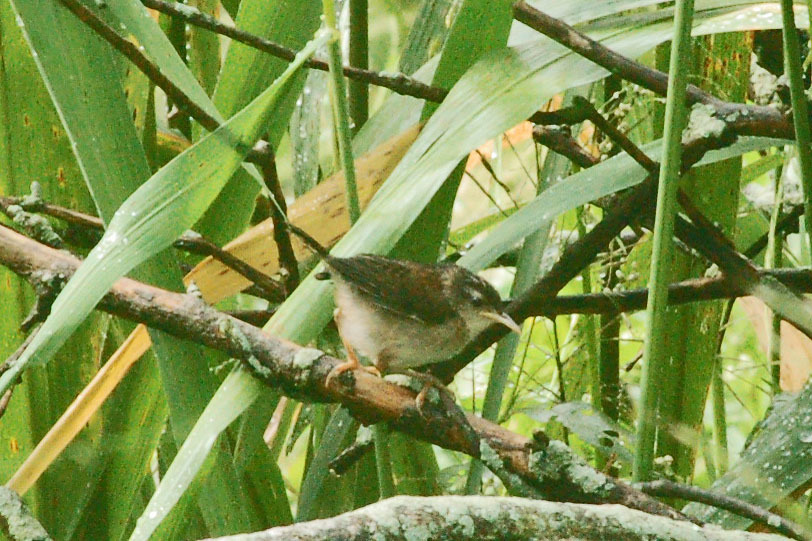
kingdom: Animalia
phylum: Chordata
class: Aves
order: Passeriformes
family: Troglodytidae
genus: Cistothorus
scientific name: Cistothorus palustris
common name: Marsh wren
